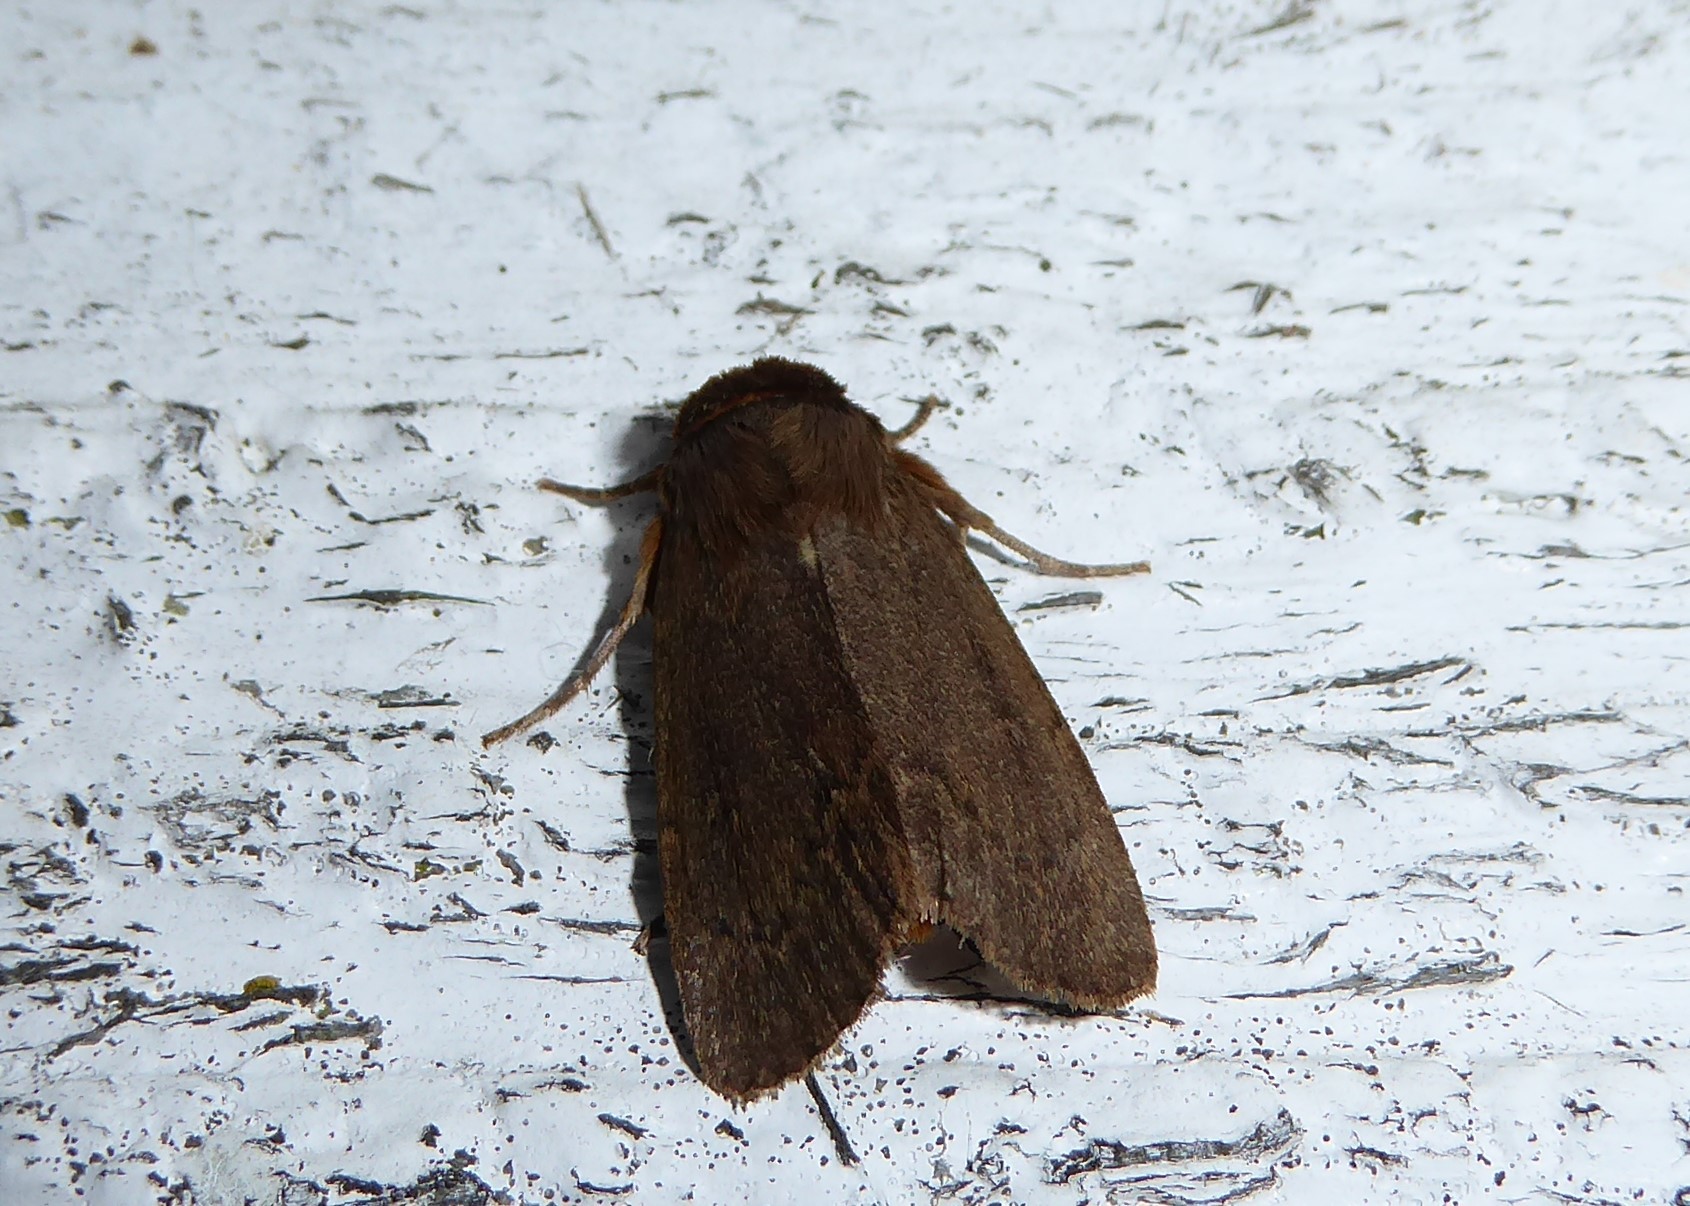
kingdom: Animalia
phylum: Arthropoda
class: Insecta
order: Lepidoptera
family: Noctuidae
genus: Bityla
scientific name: Bityla defigurata
